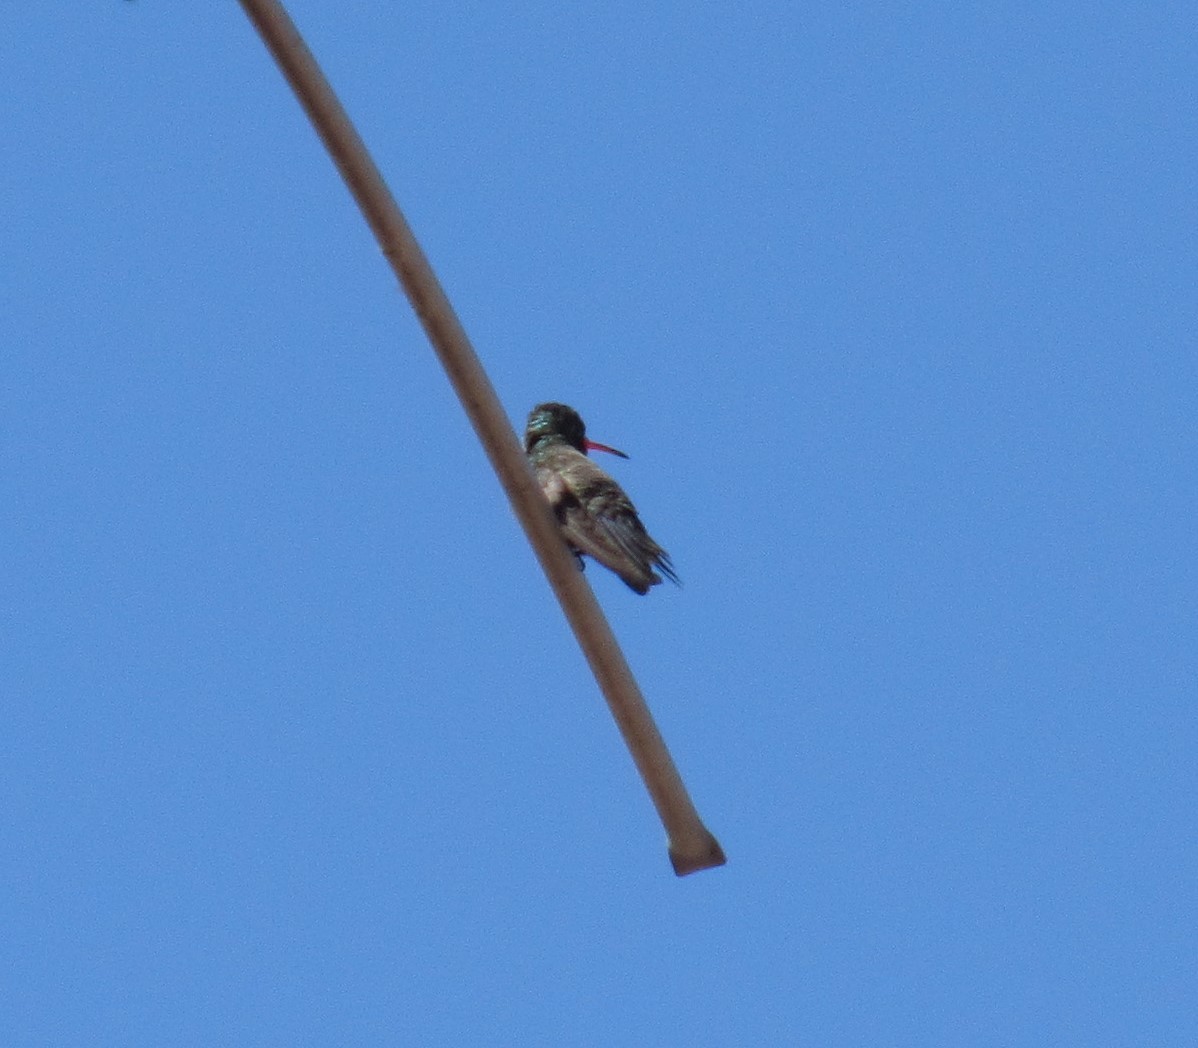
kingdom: Animalia
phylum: Chordata
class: Aves
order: Apodiformes
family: Trochilidae
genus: Cynanthus
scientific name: Cynanthus latirostris
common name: Broad-billed hummingbird
